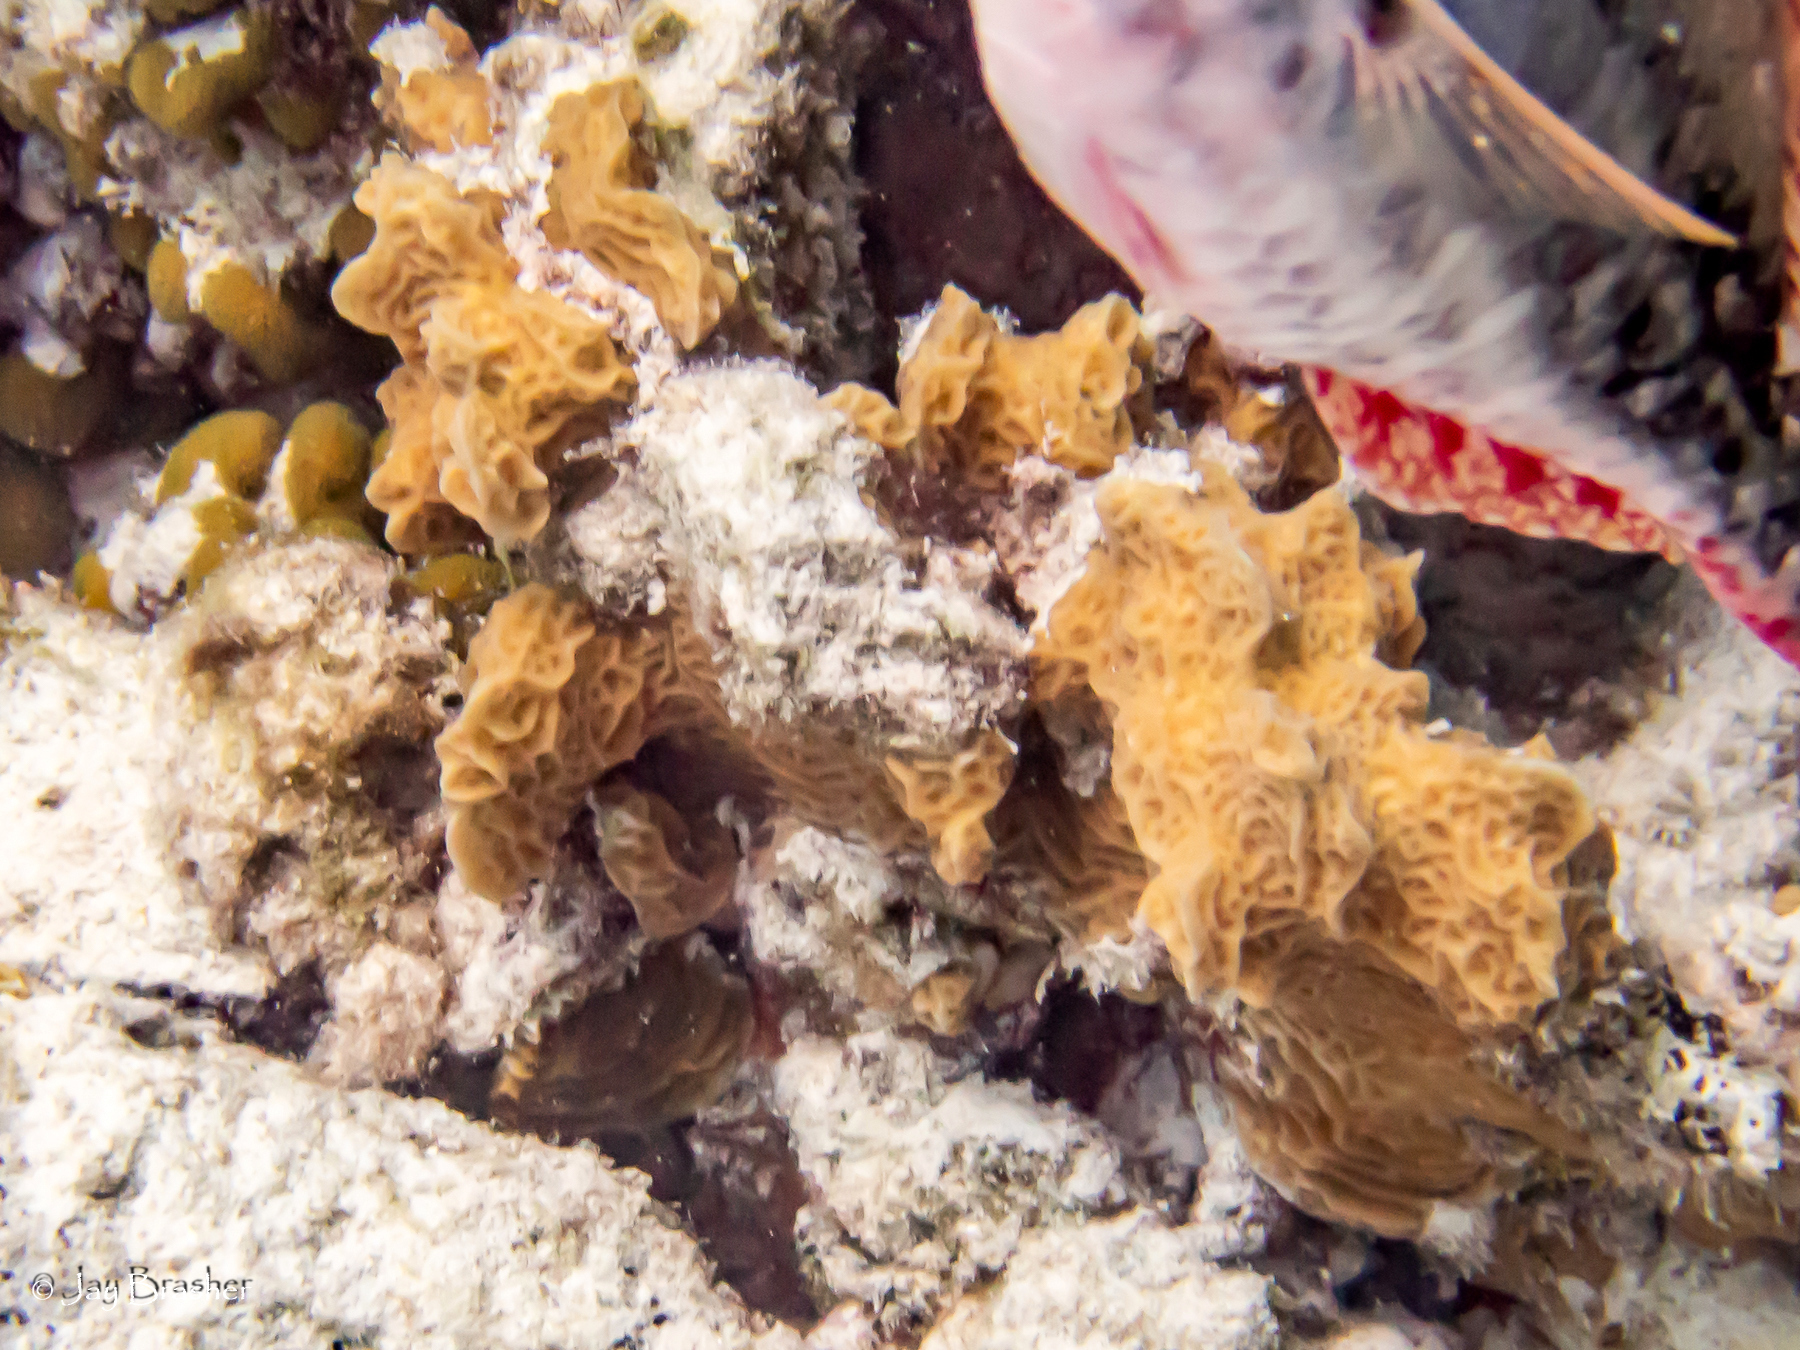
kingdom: Animalia
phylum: Cnidaria
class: Anthozoa
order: Scleractinia
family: Agariciidae
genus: Agaricia
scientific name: Agaricia agaricites
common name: Lettuce coral
